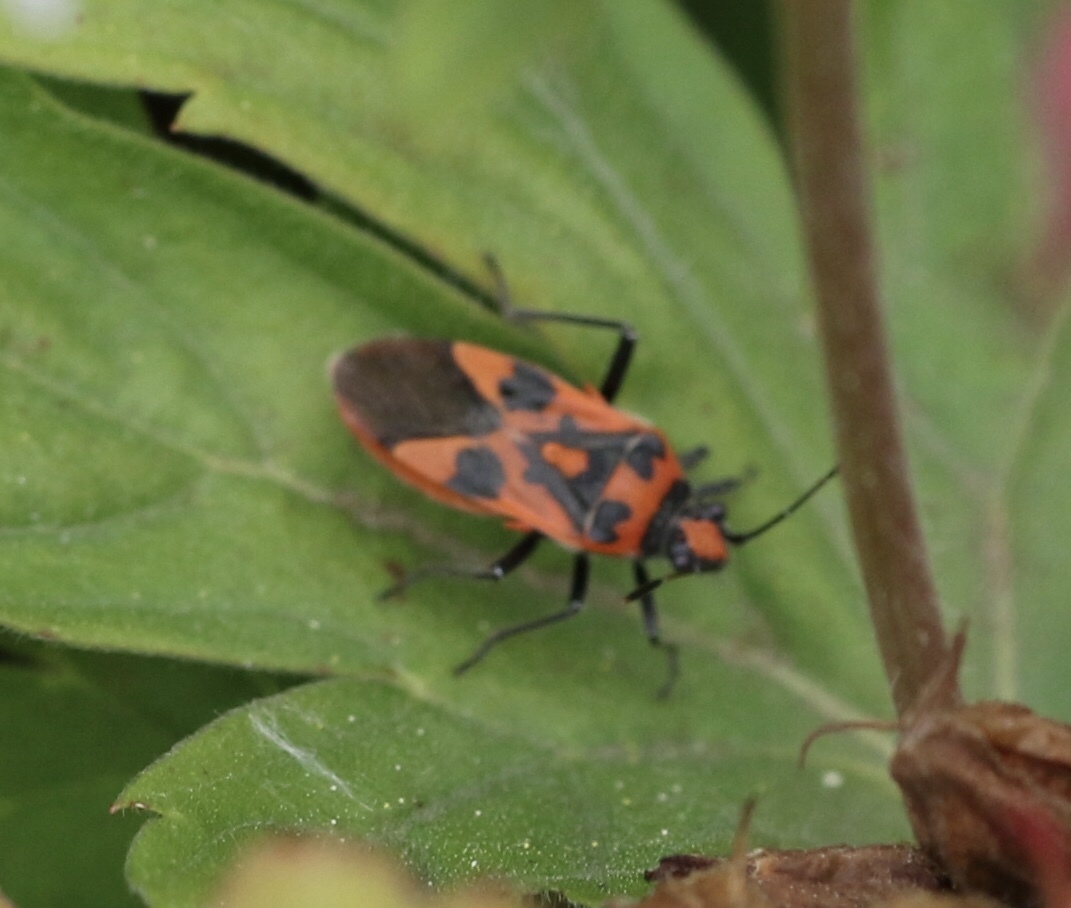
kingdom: Animalia
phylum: Arthropoda
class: Insecta
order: Hemiptera
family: Rhopalidae
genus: Corizus
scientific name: Corizus hyoscyami
